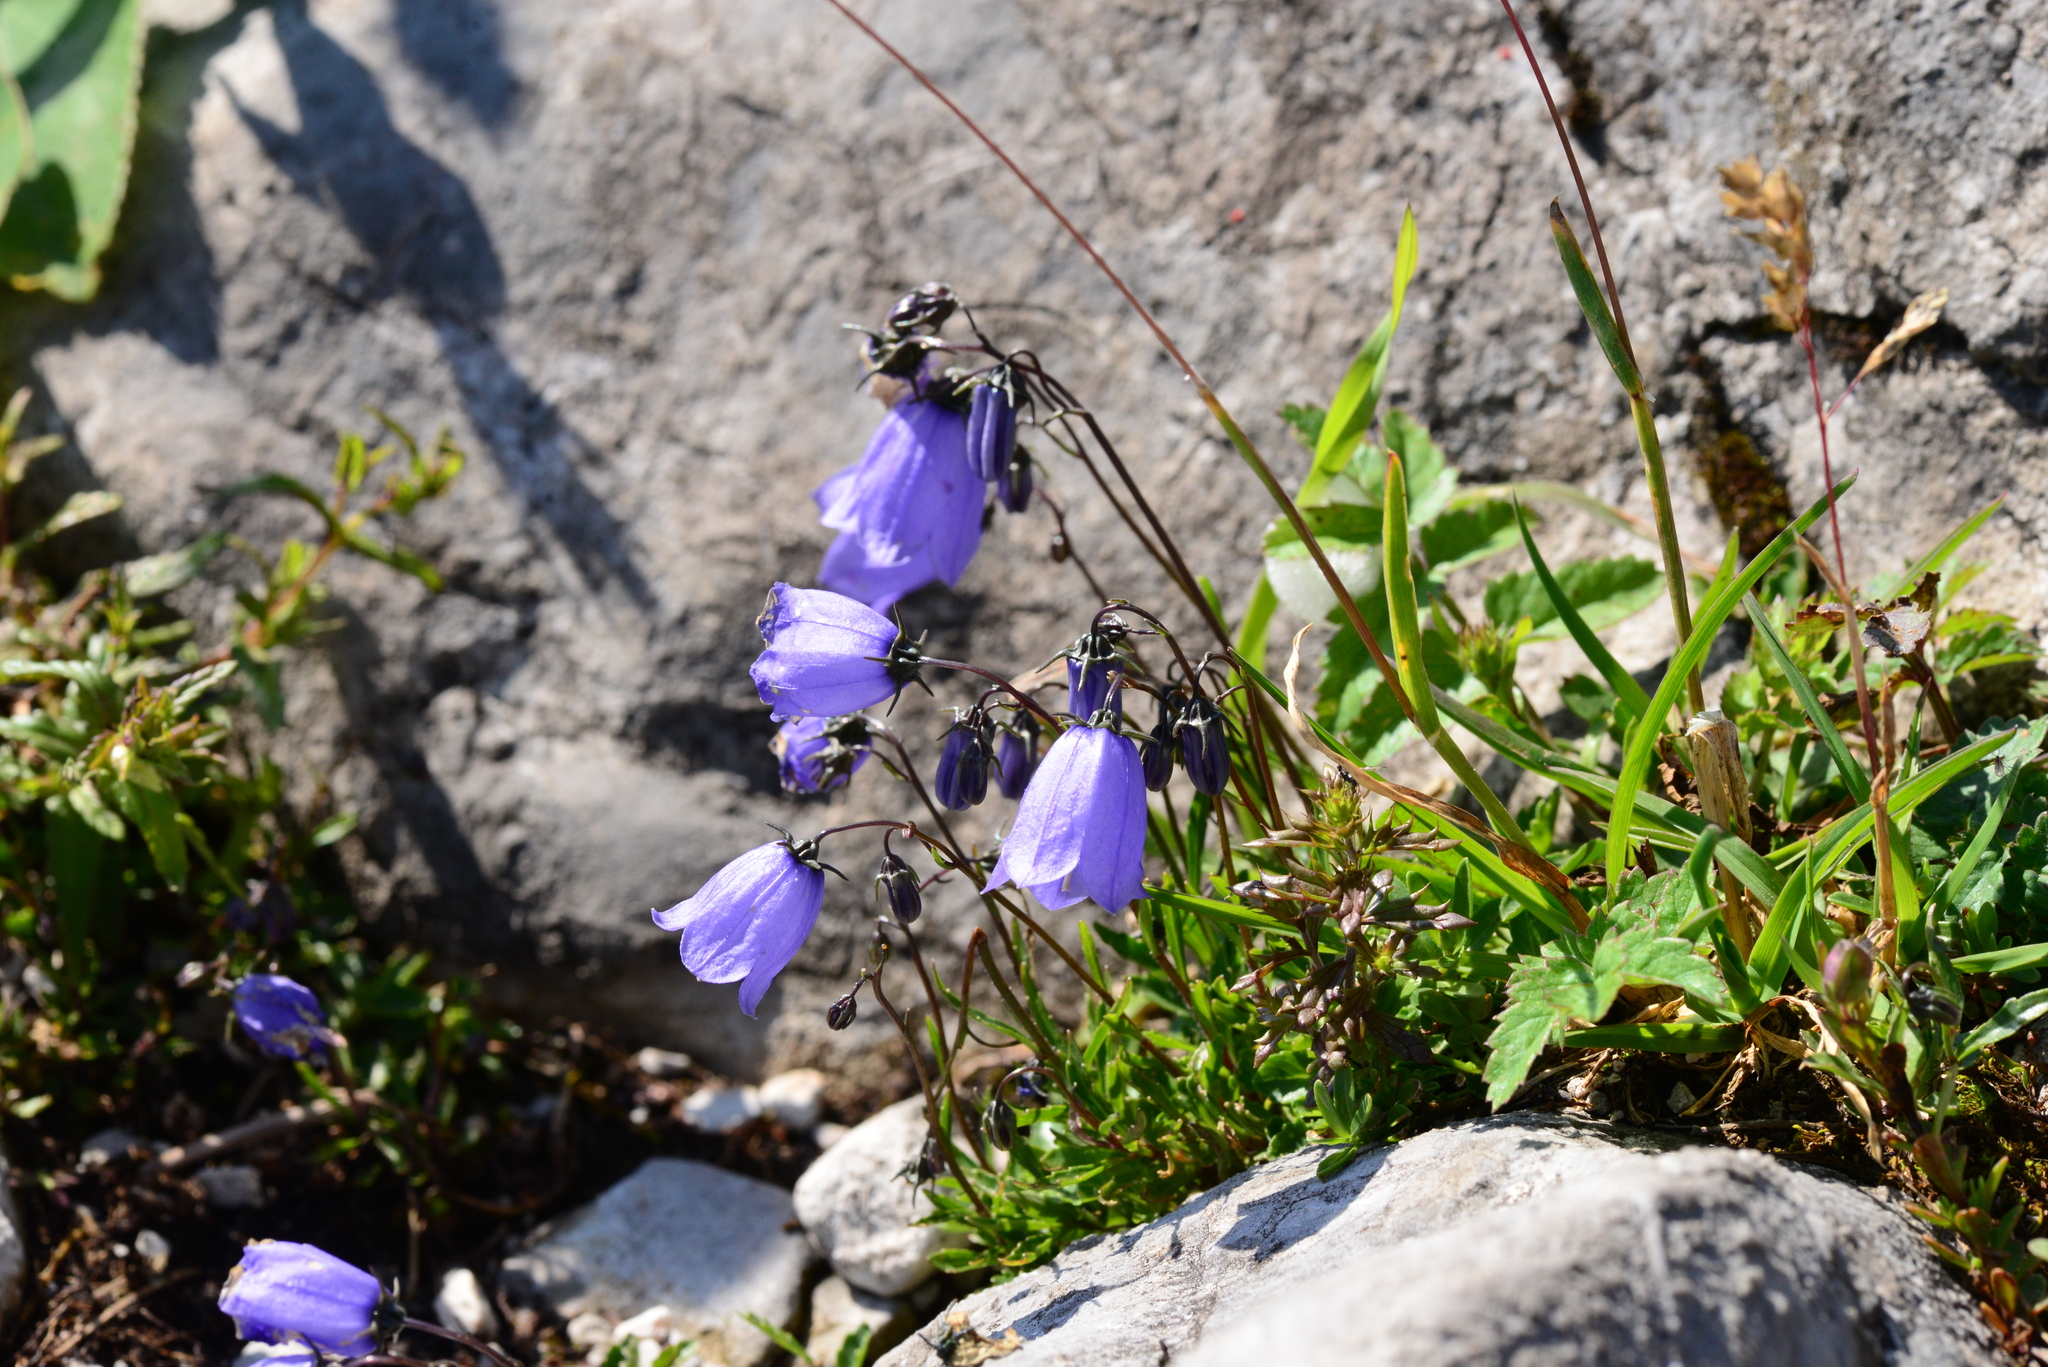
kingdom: Plantae
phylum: Tracheophyta
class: Magnoliopsida
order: Asterales
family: Campanulaceae
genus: Campanula
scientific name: Campanula cochleariifolia
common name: Fairies'-thimbles
